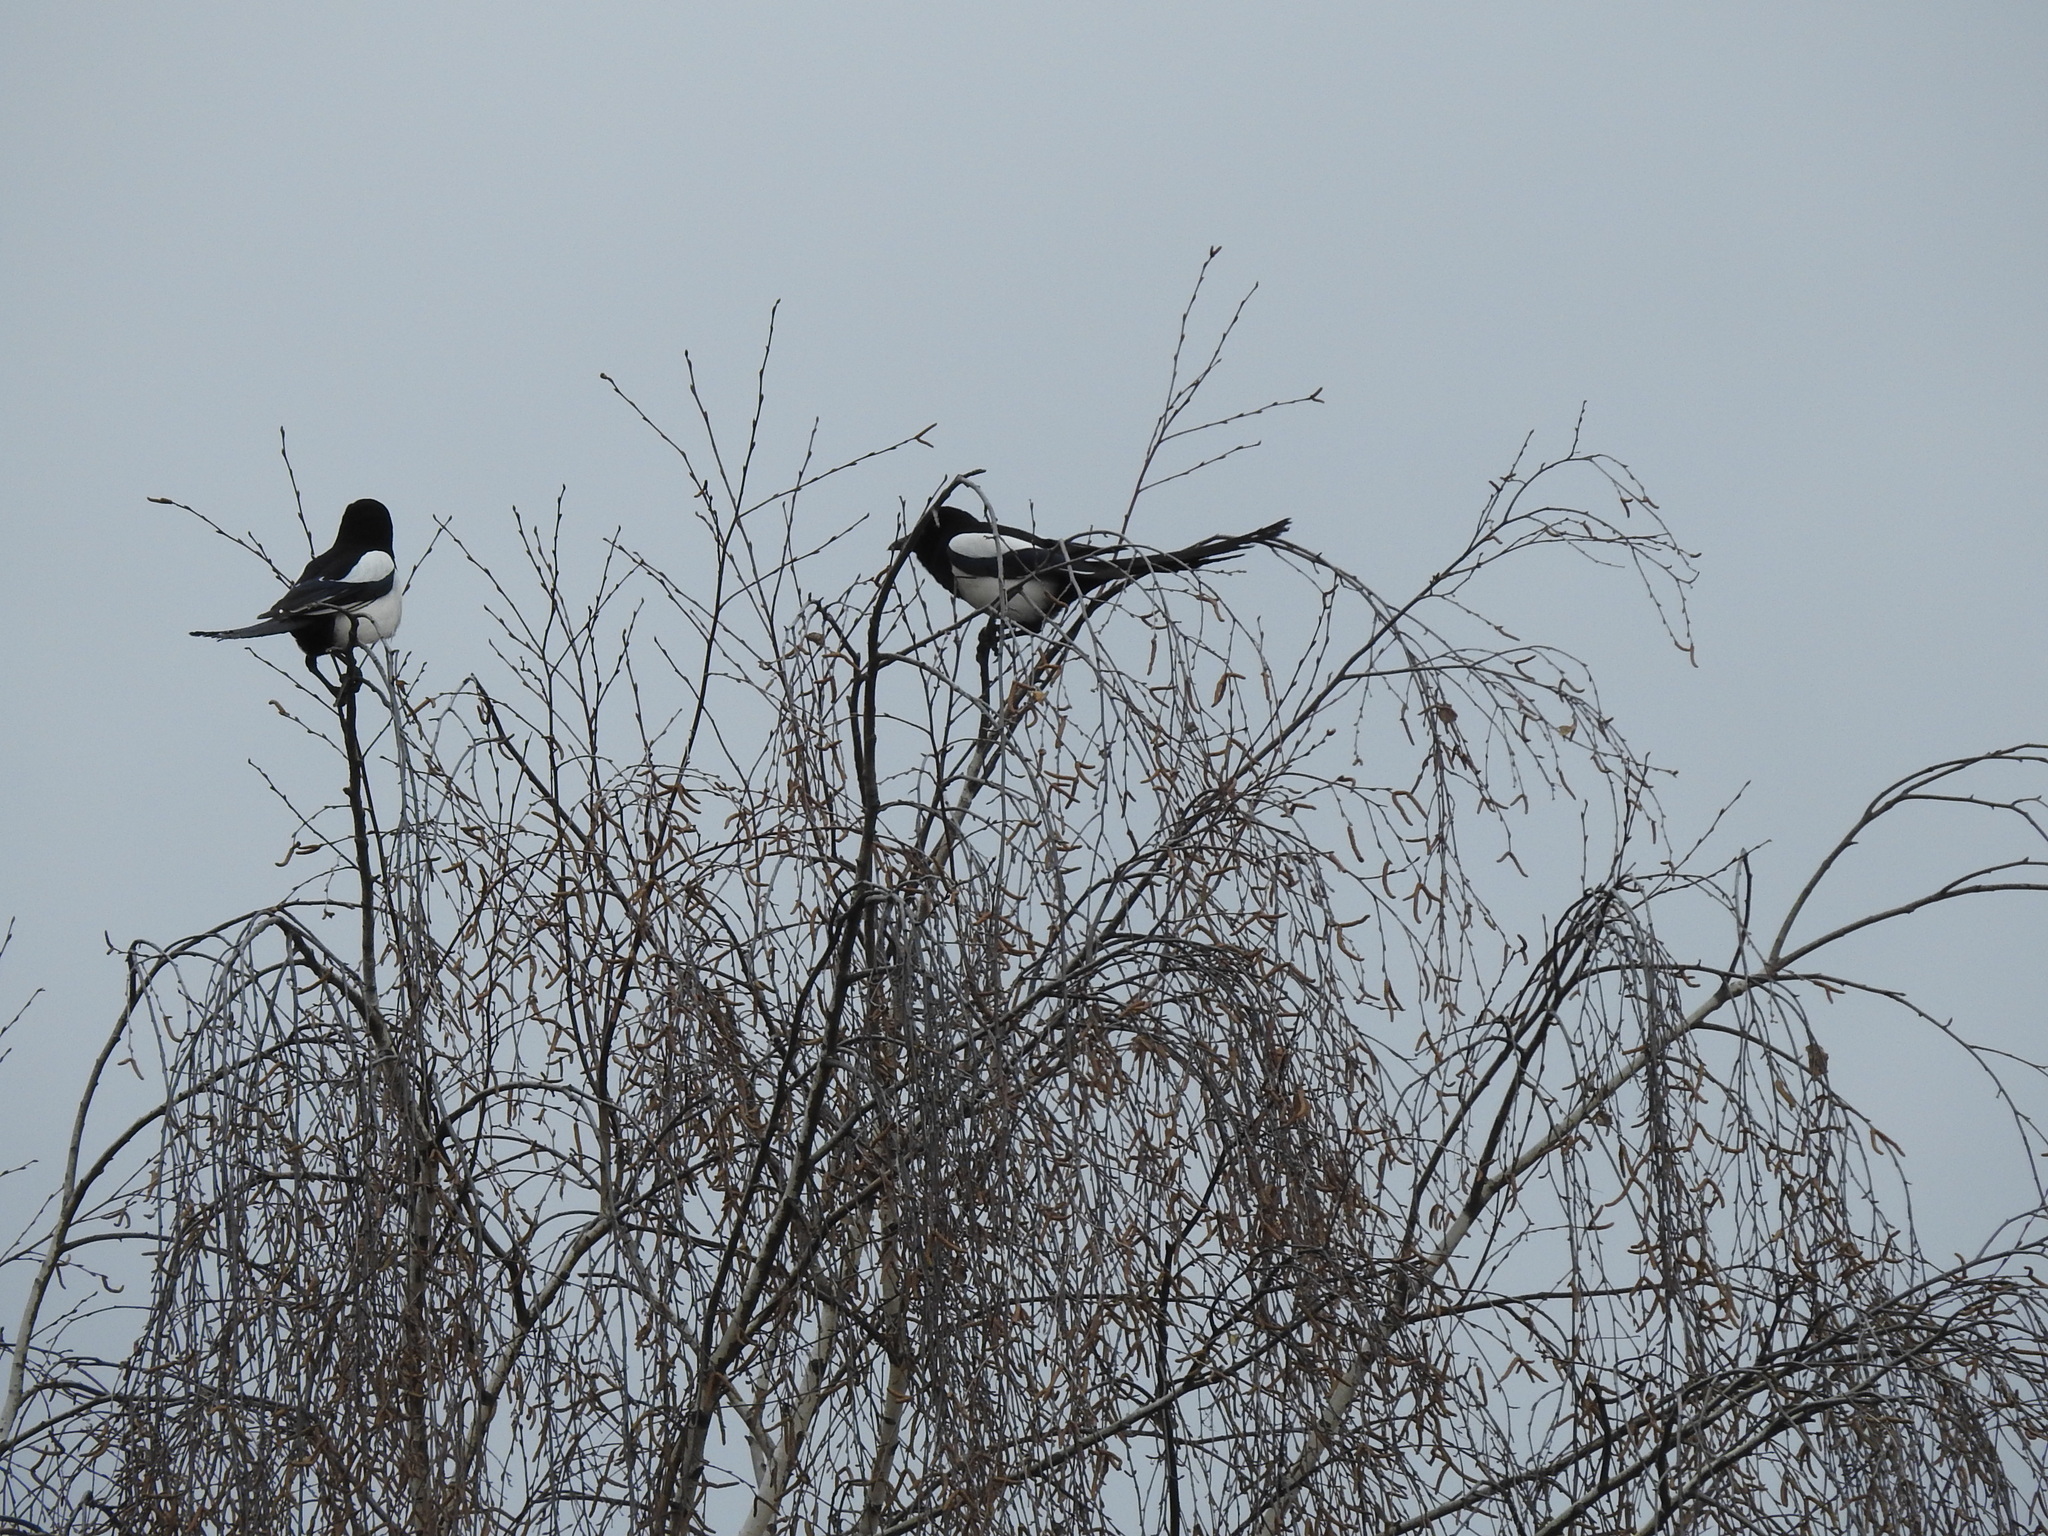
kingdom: Animalia
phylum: Chordata
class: Aves
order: Passeriformes
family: Corvidae
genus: Pica
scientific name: Pica pica
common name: Eurasian magpie
